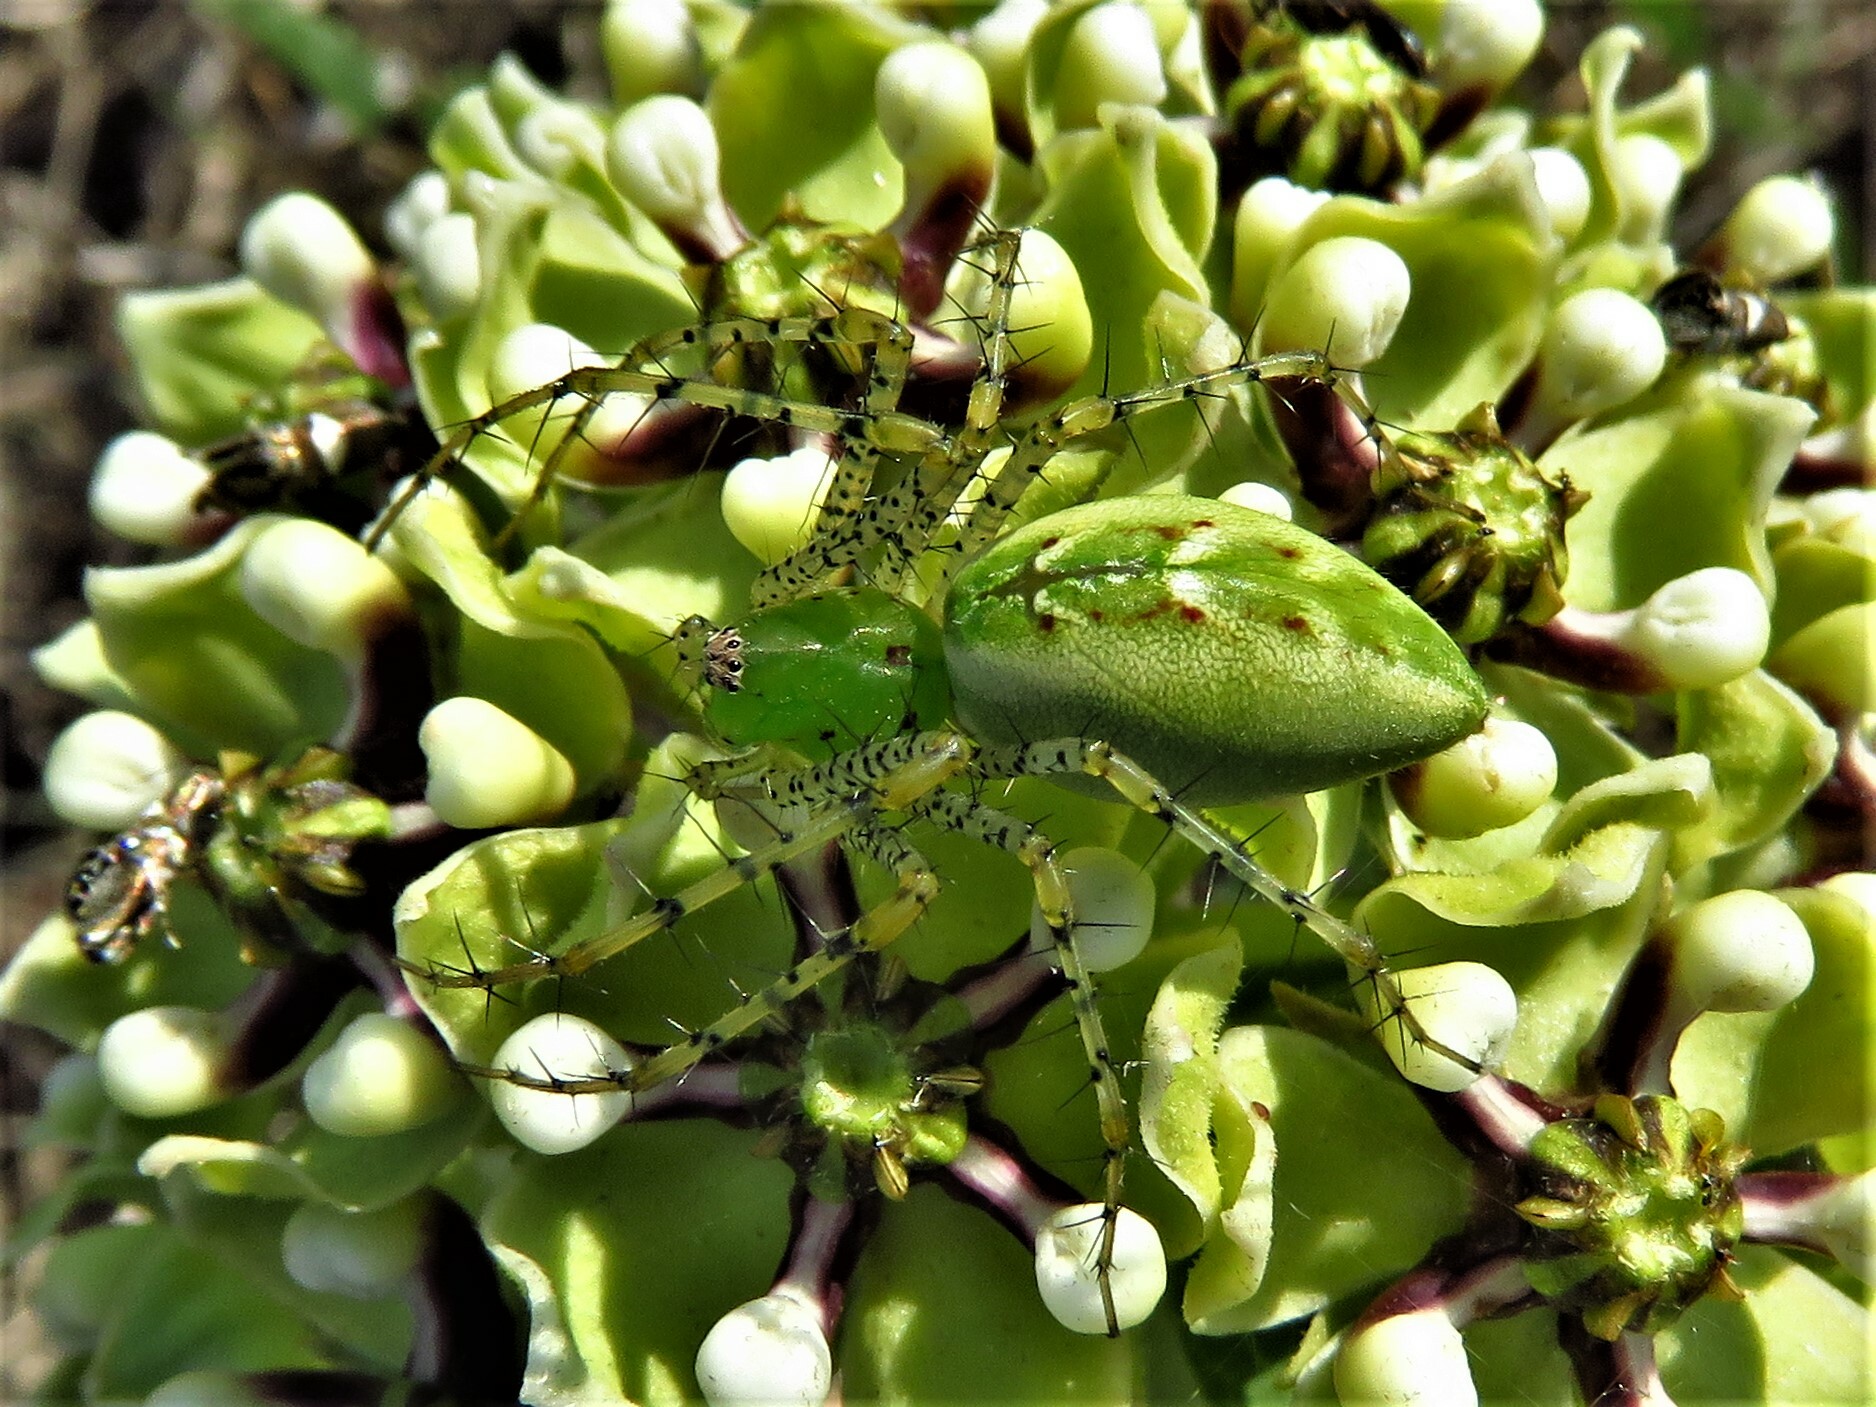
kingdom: Animalia
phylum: Arthropoda
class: Arachnida
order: Araneae
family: Oxyopidae
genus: Peucetia
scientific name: Peucetia viridans
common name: Lynx spiders
